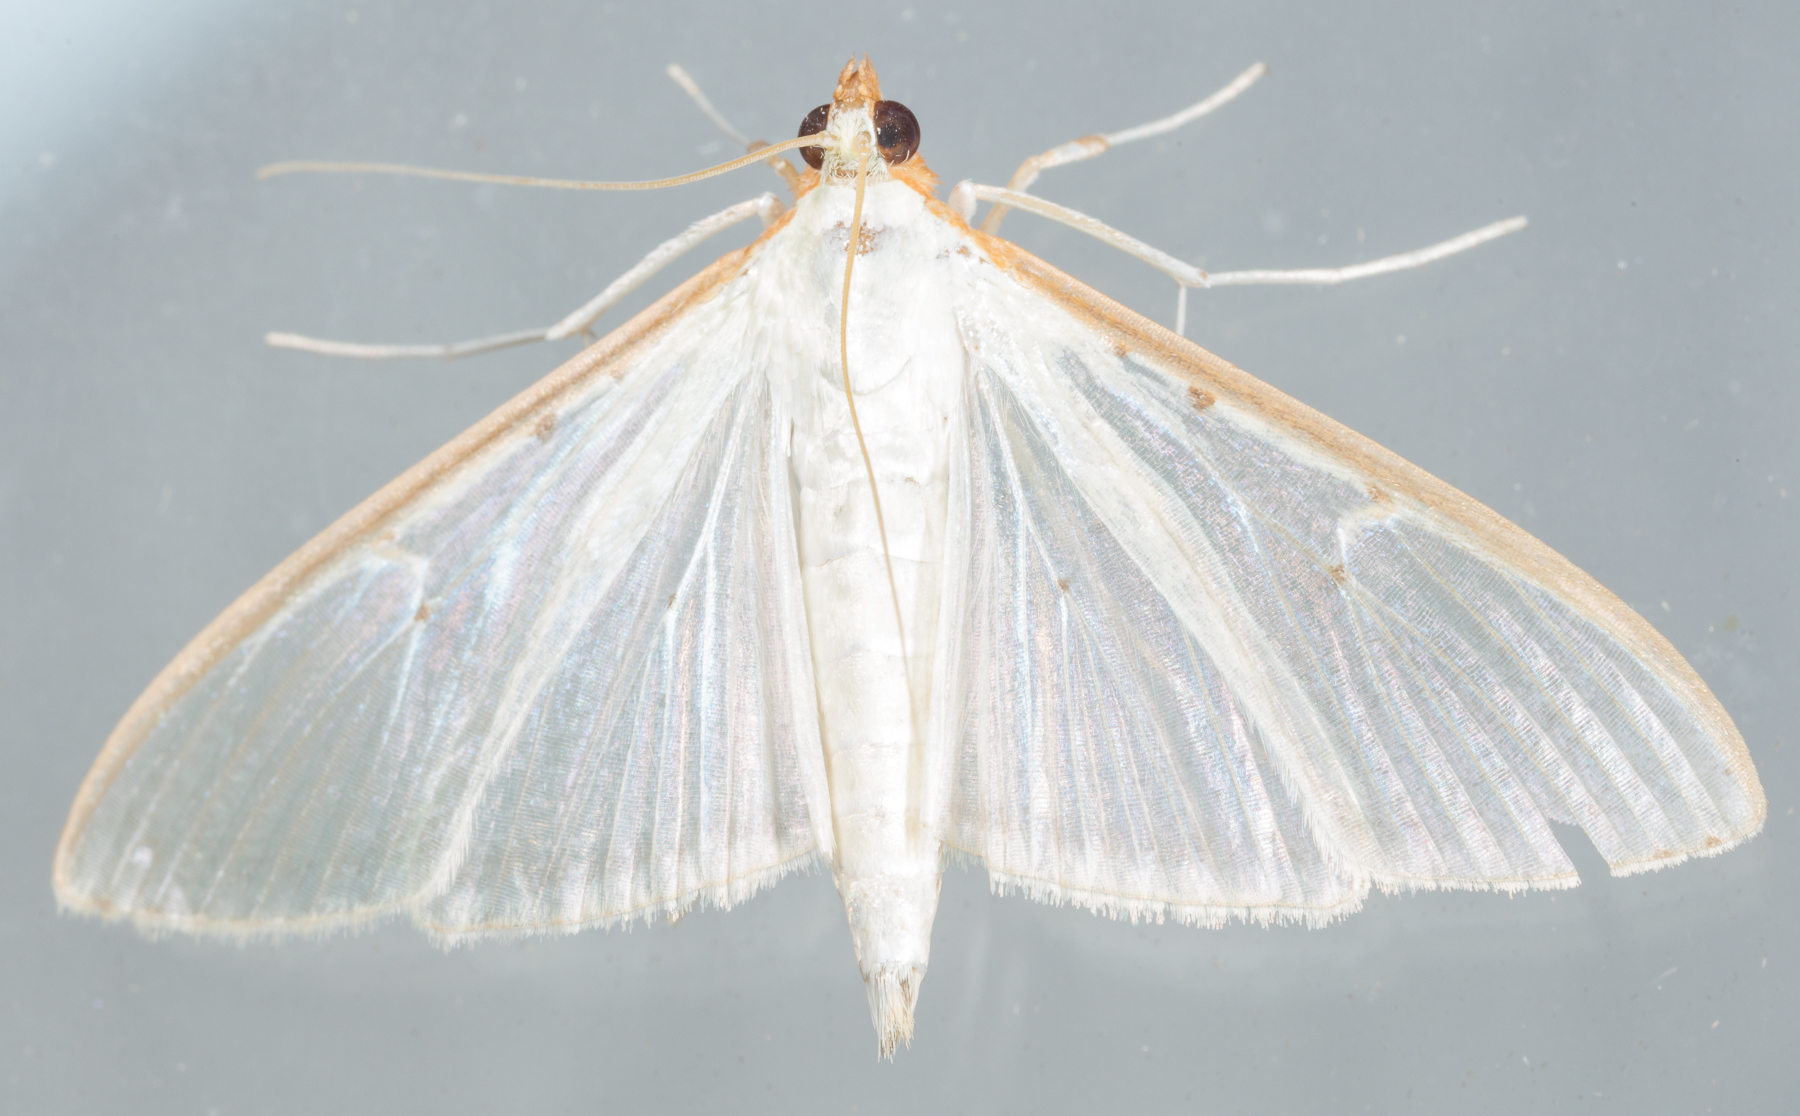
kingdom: Animalia
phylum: Arthropoda
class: Insecta
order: Lepidoptera
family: Crambidae
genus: Palpita
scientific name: Palpita quadristigmalis
